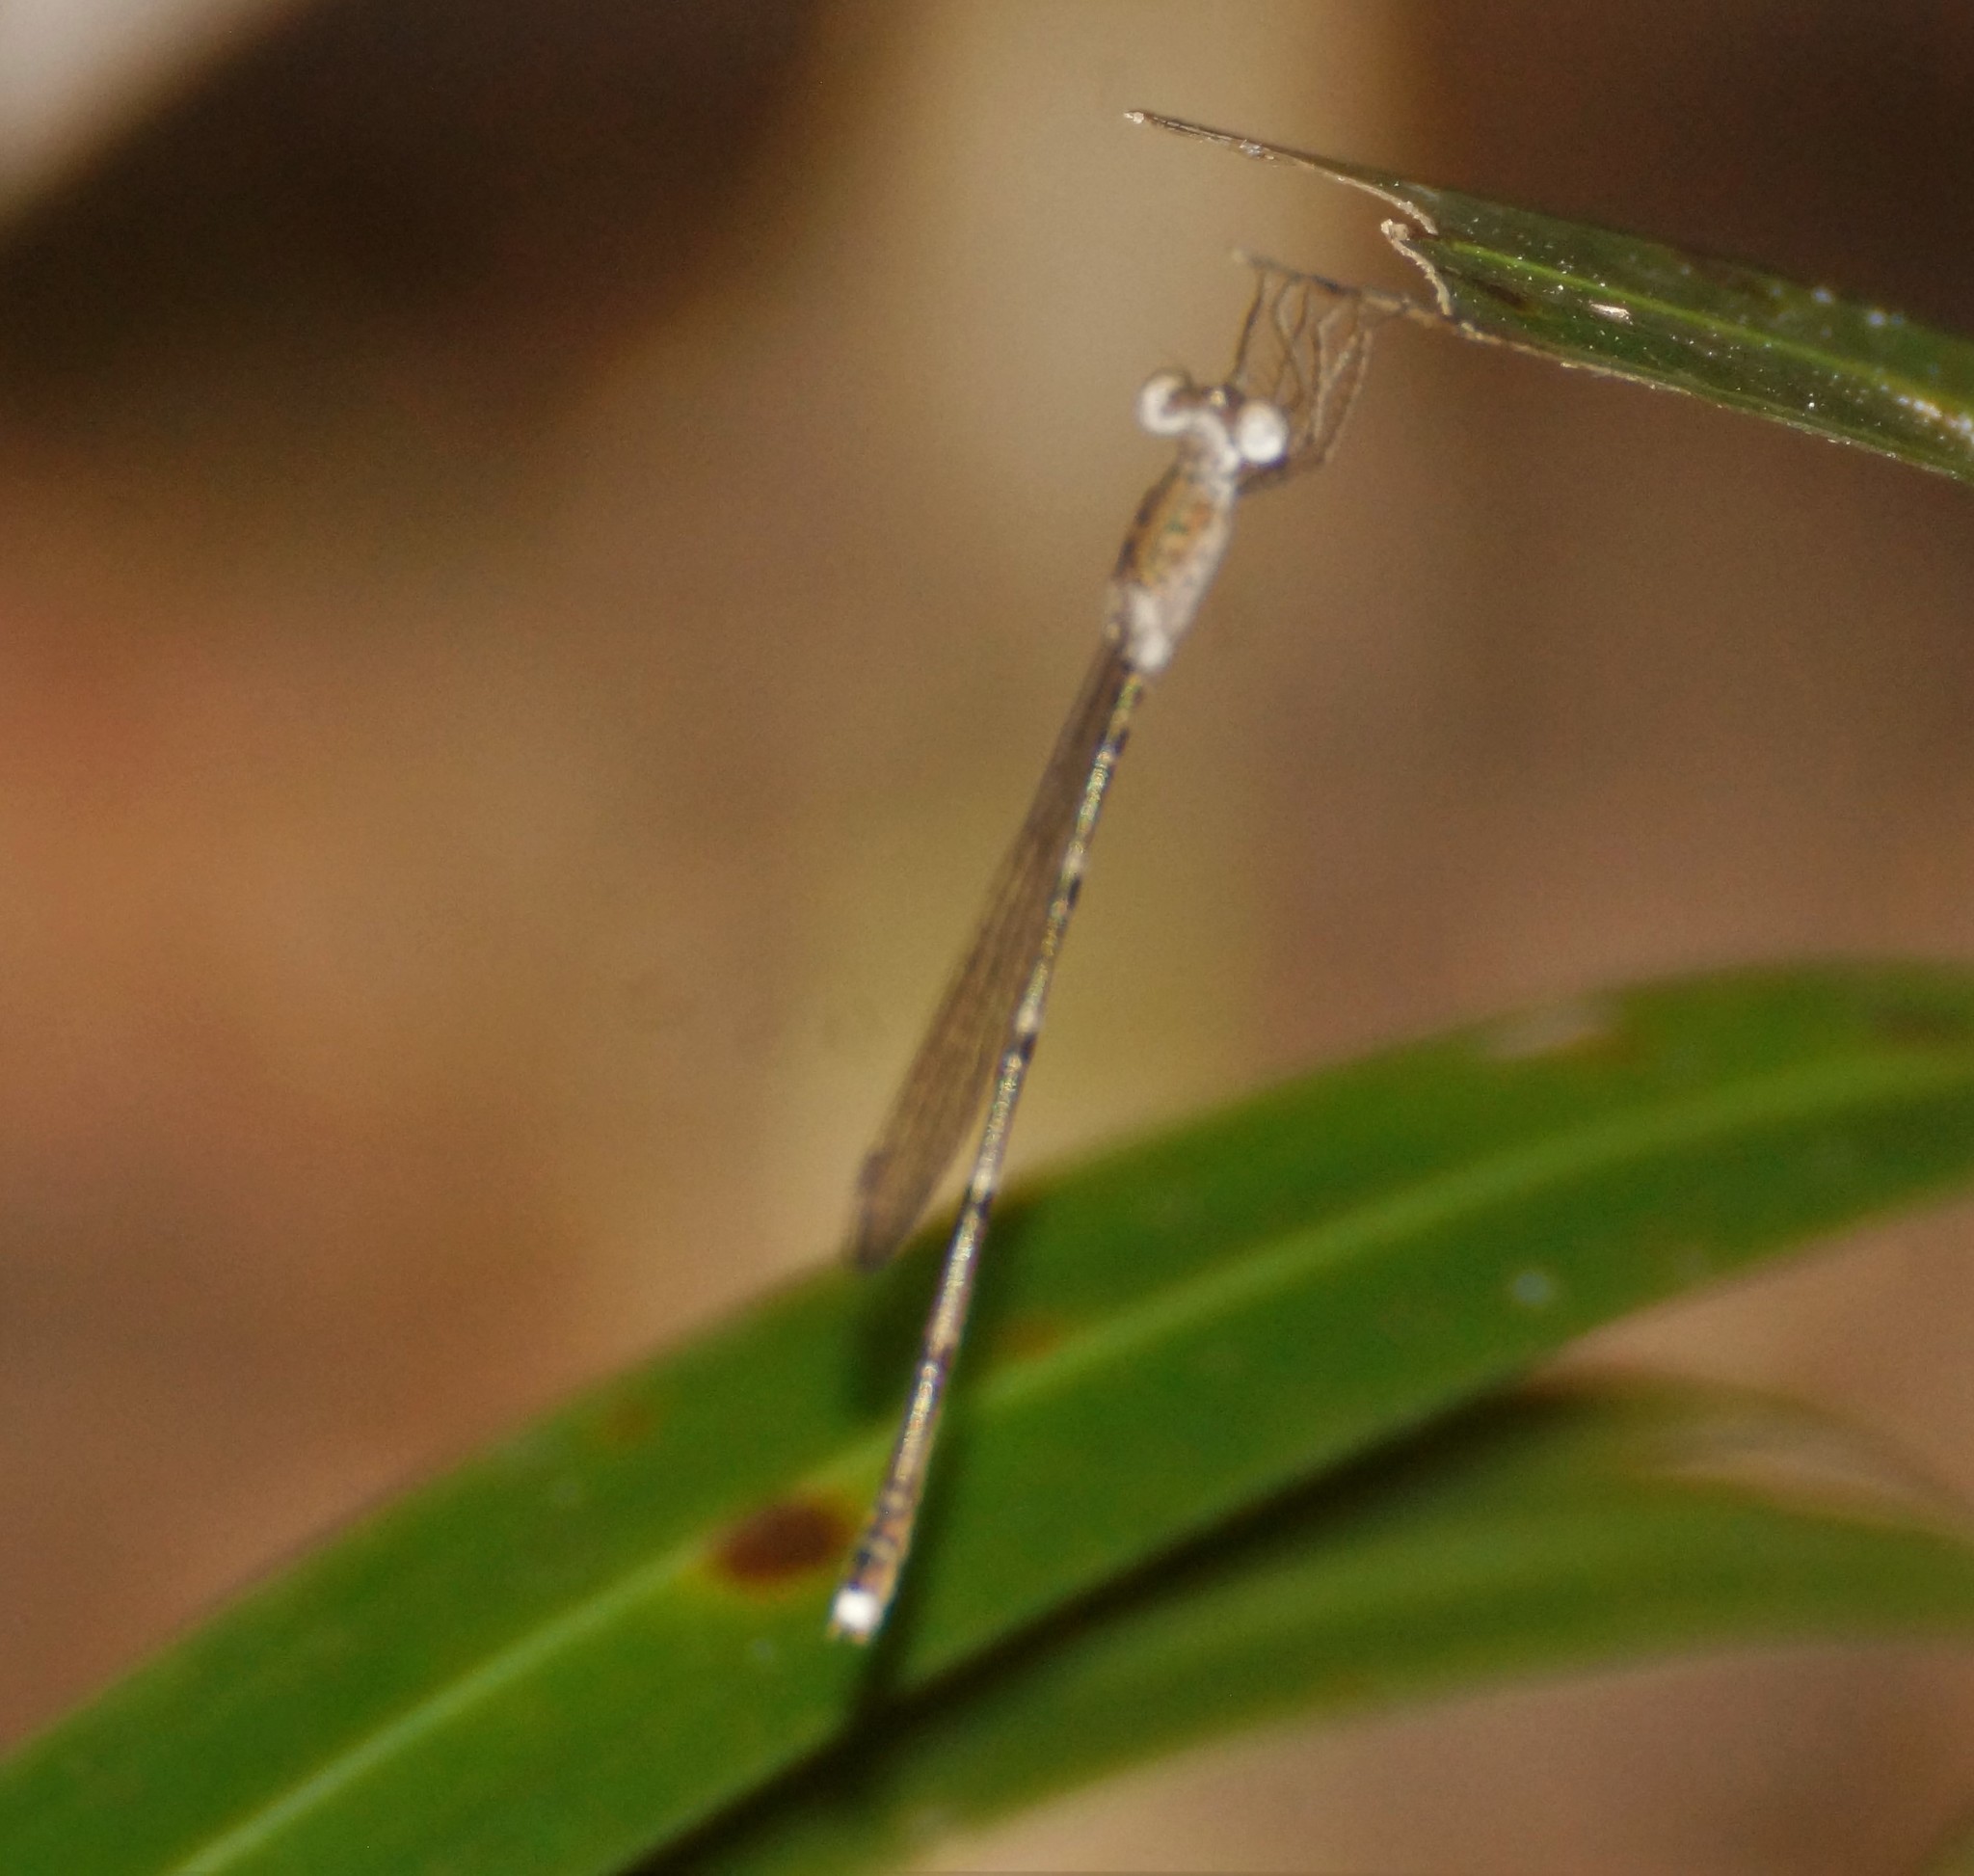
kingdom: Animalia
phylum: Arthropoda
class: Insecta
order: Odonata
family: Lestidae
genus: Indolestes
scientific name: Indolestes alleni
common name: Small reedling
